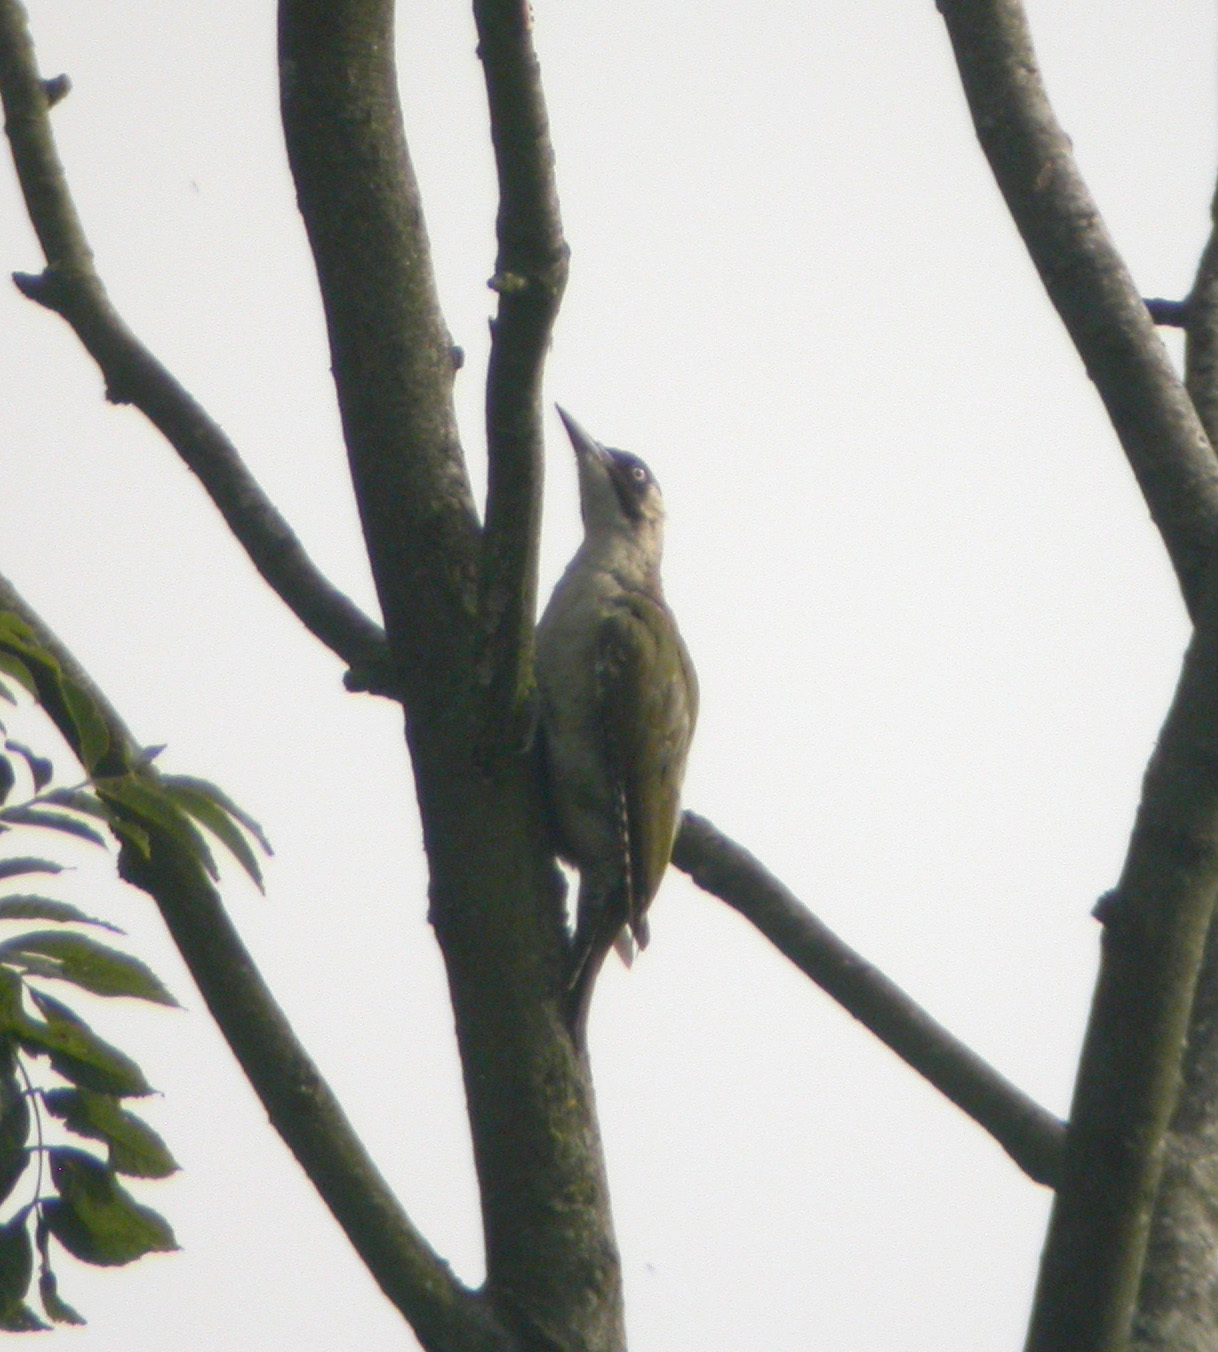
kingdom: Animalia
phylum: Chordata
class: Aves
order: Piciformes
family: Picidae
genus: Picus
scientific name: Picus viridis
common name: European green woodpecker
